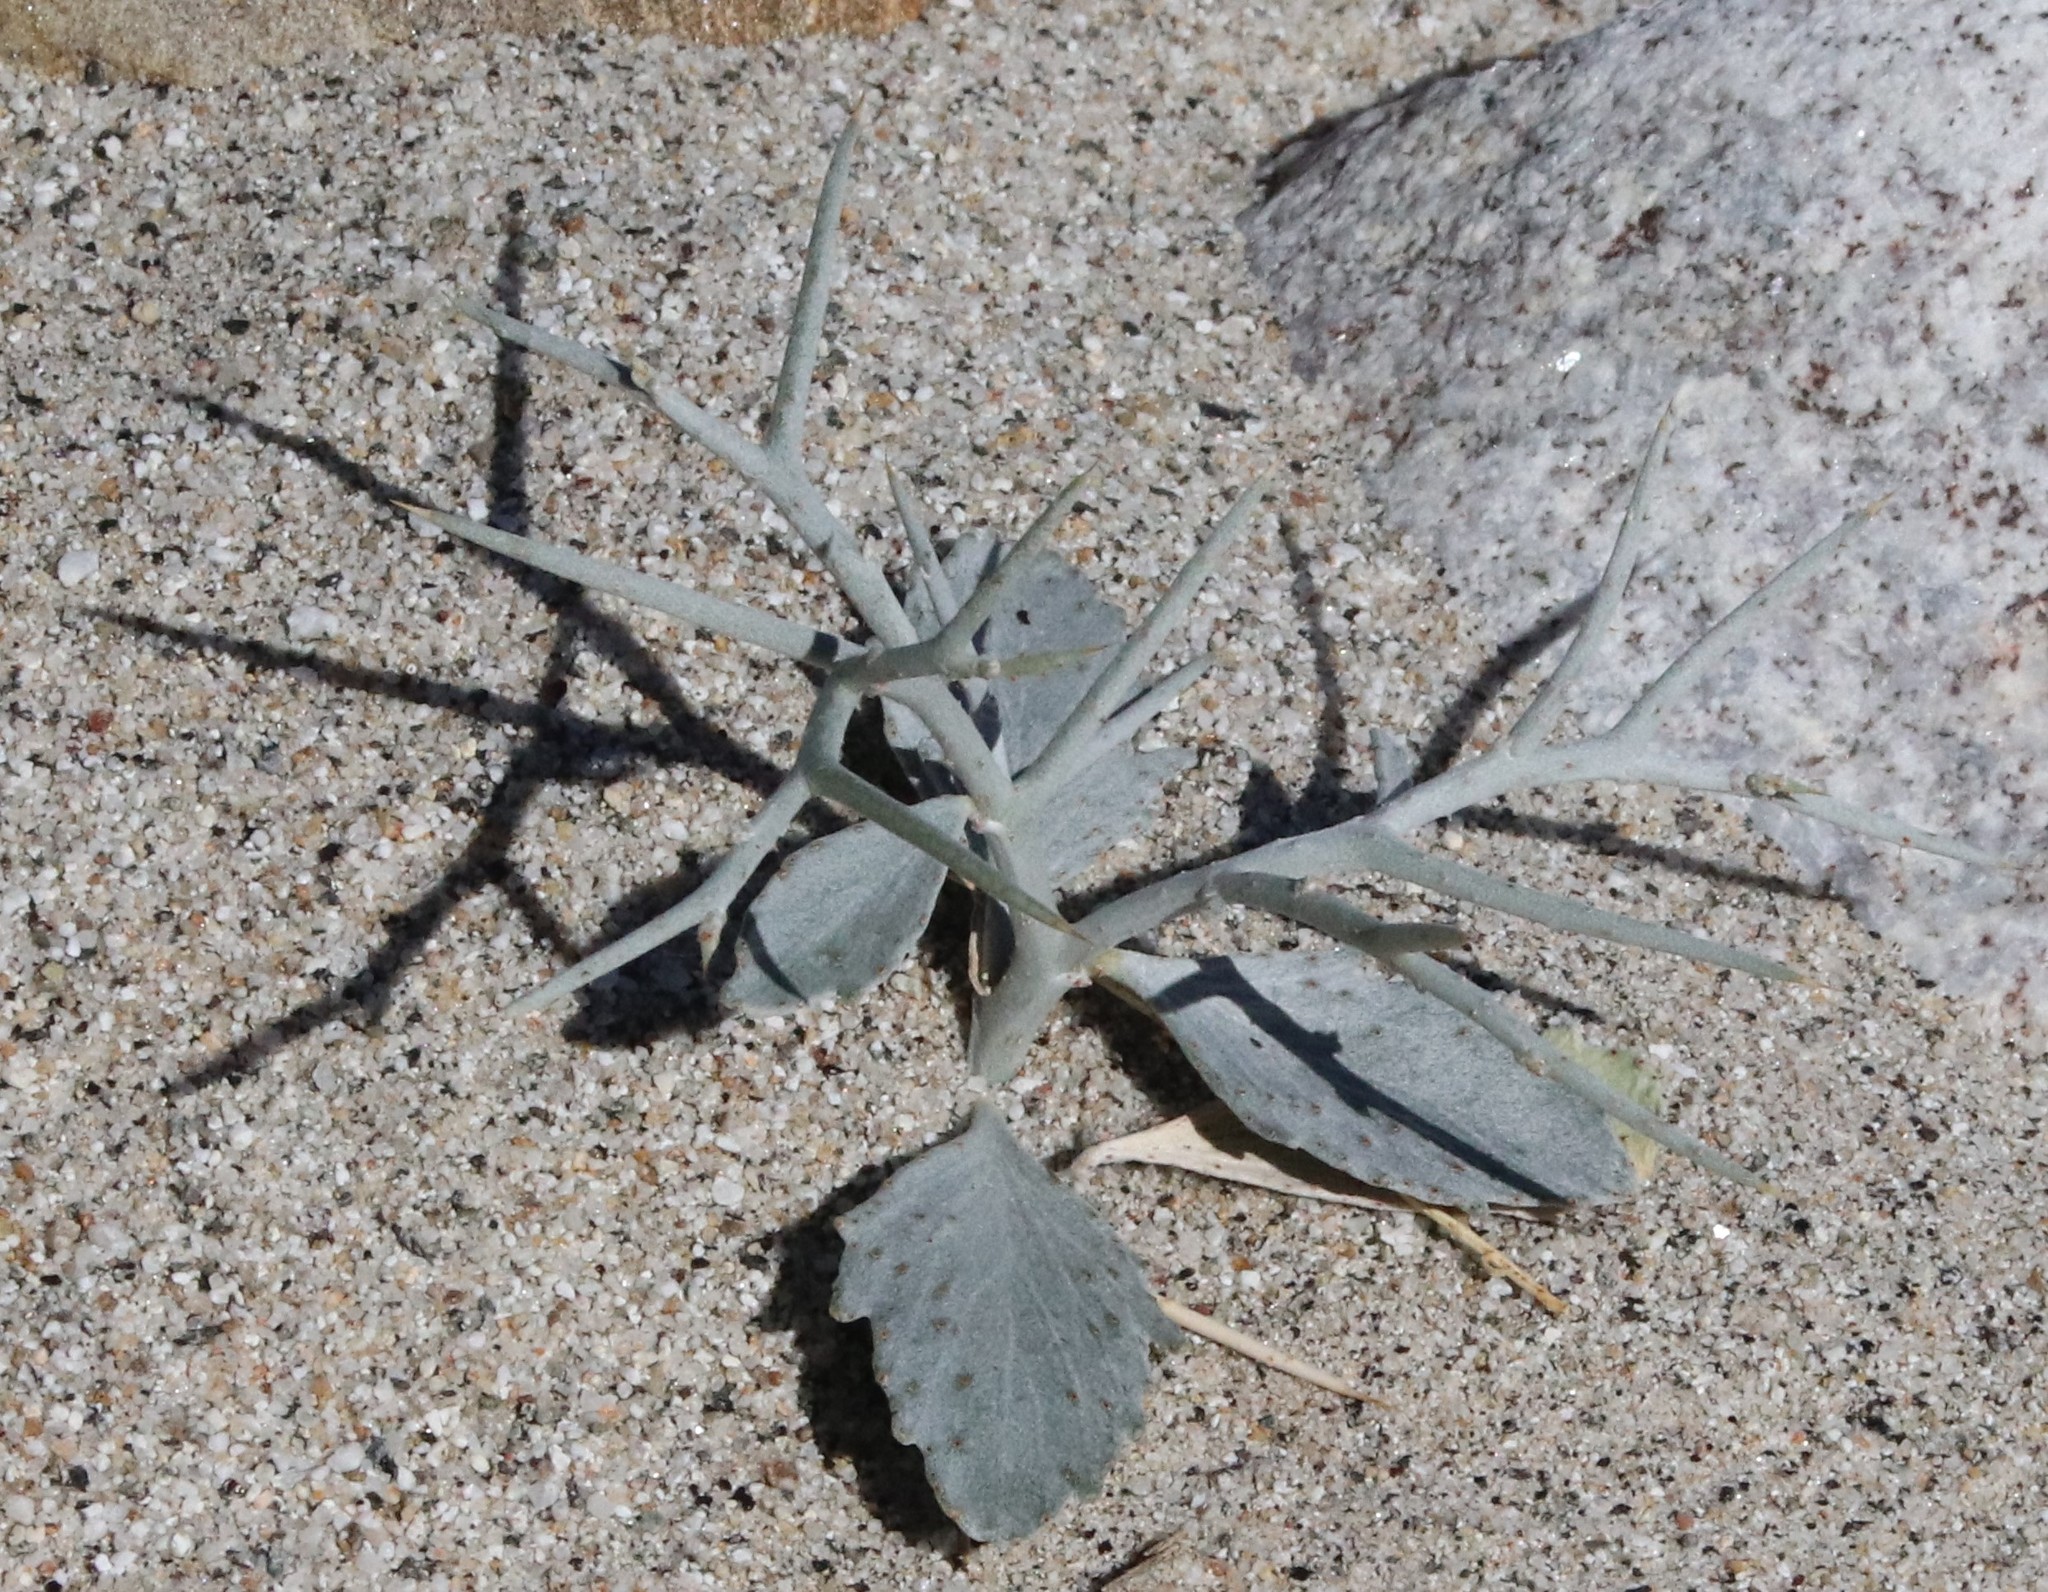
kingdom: Plantae
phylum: Tracheophyta
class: Magnoliopsida
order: Fabales
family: Fabaceae
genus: Psorothamnus
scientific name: Psorothamnus spinosus
